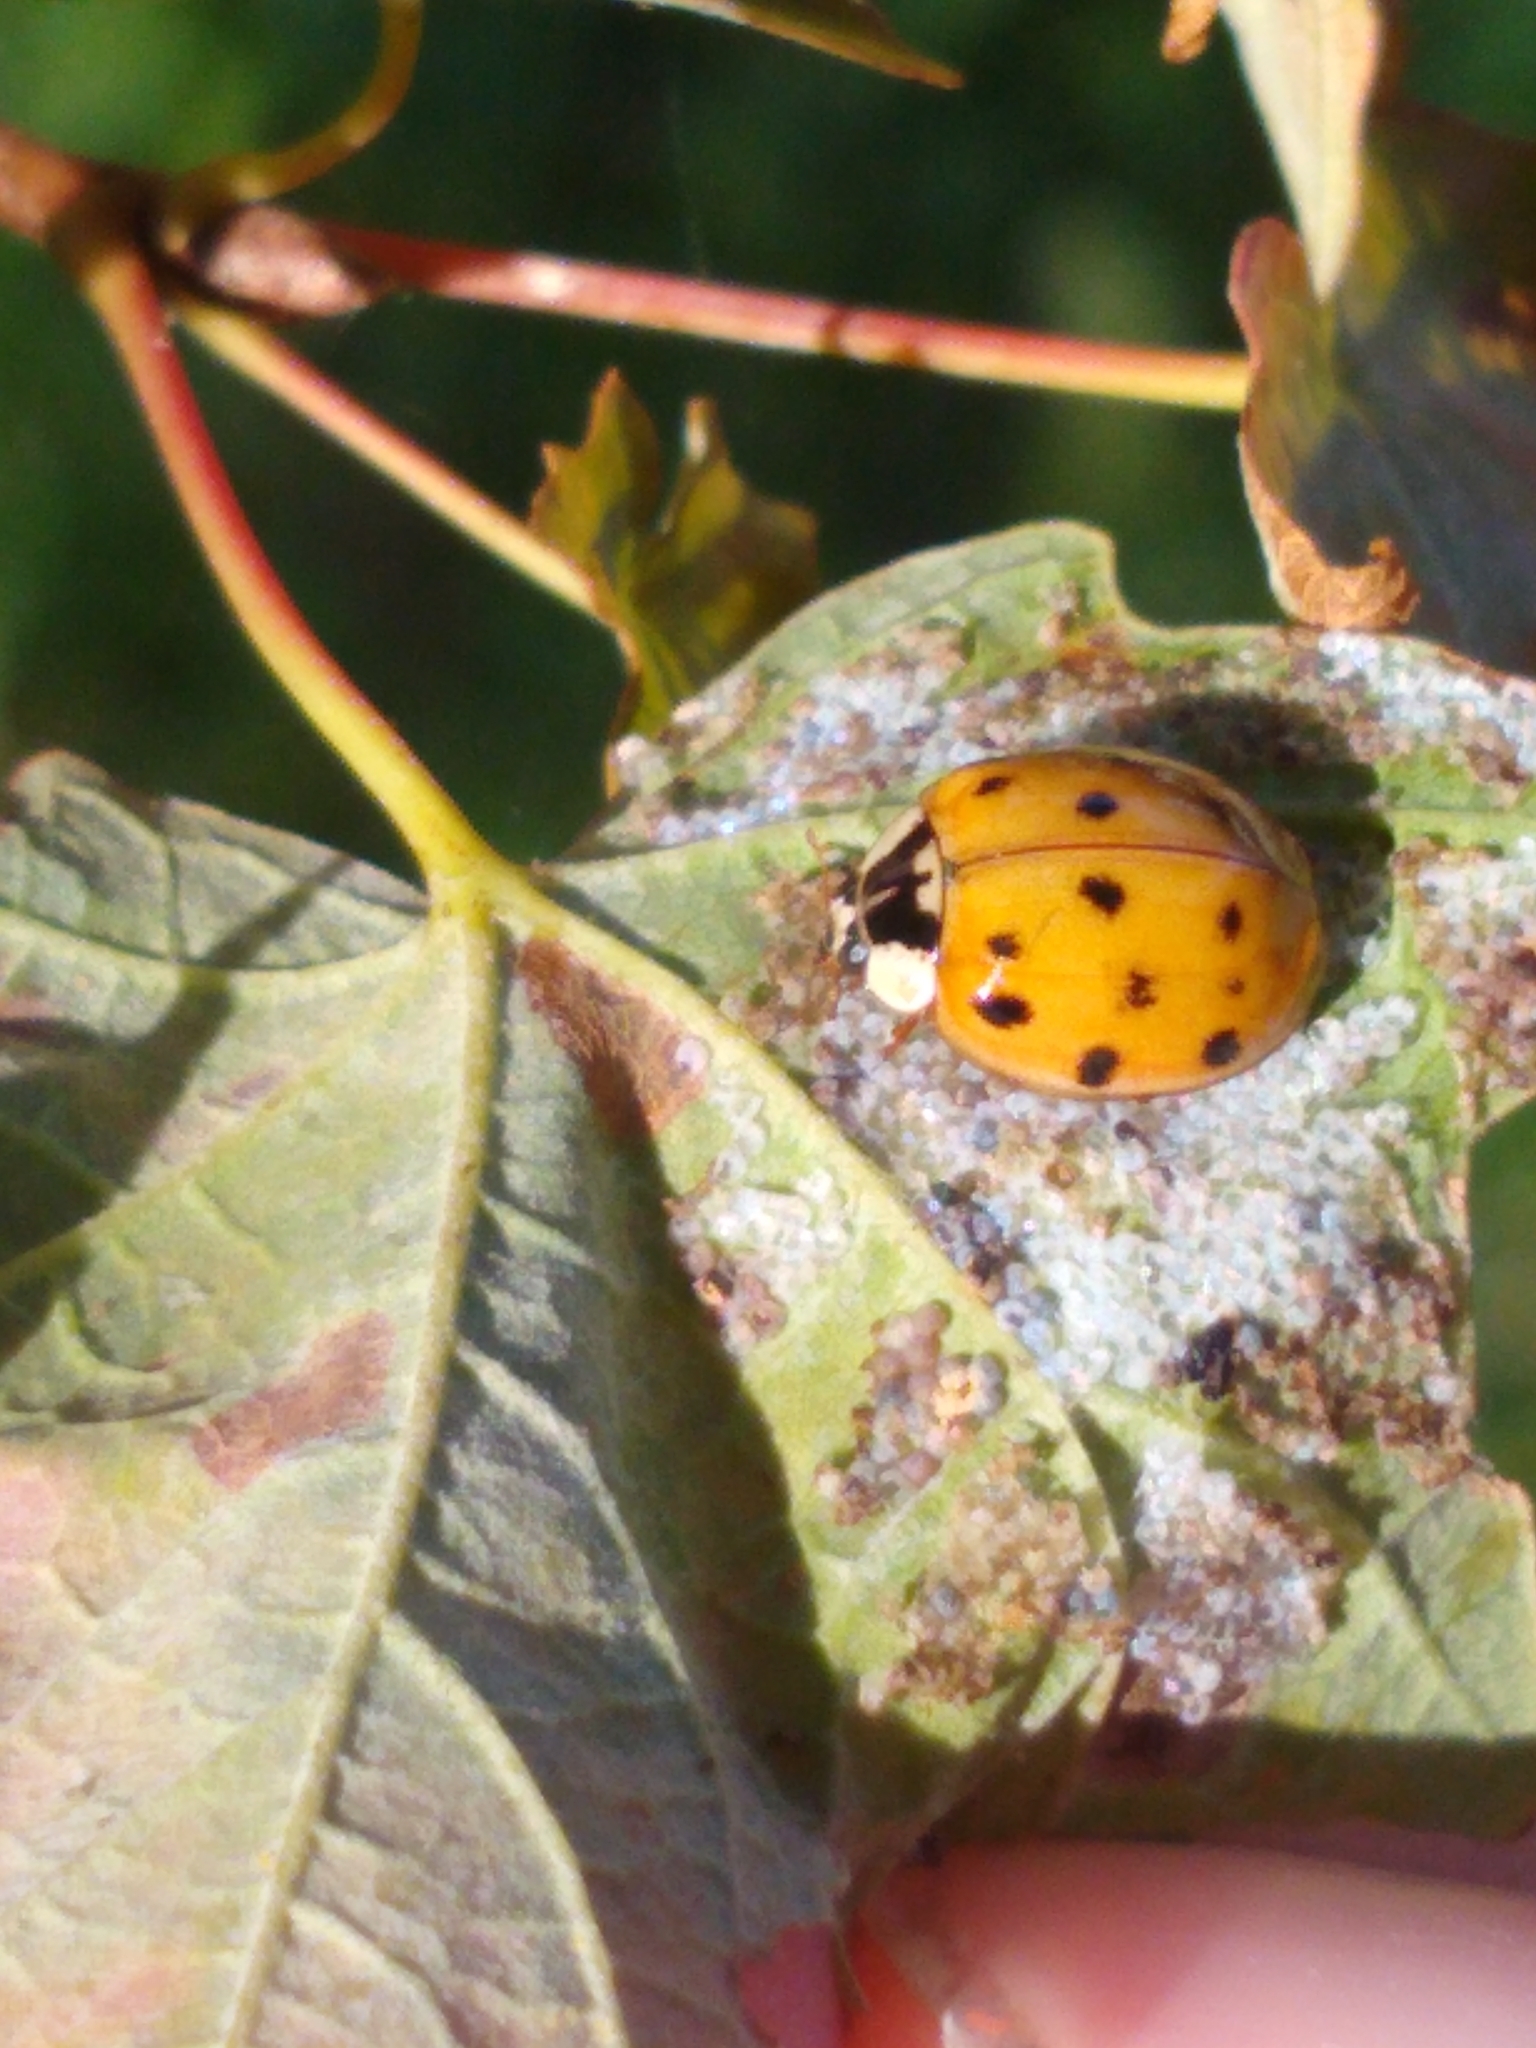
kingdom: Animalia
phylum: Arthropoda
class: Insecta
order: Coleoptera
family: Coccinellidae
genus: Harmonia
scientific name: Harmonia axyridis
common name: Harlequin ladybird
